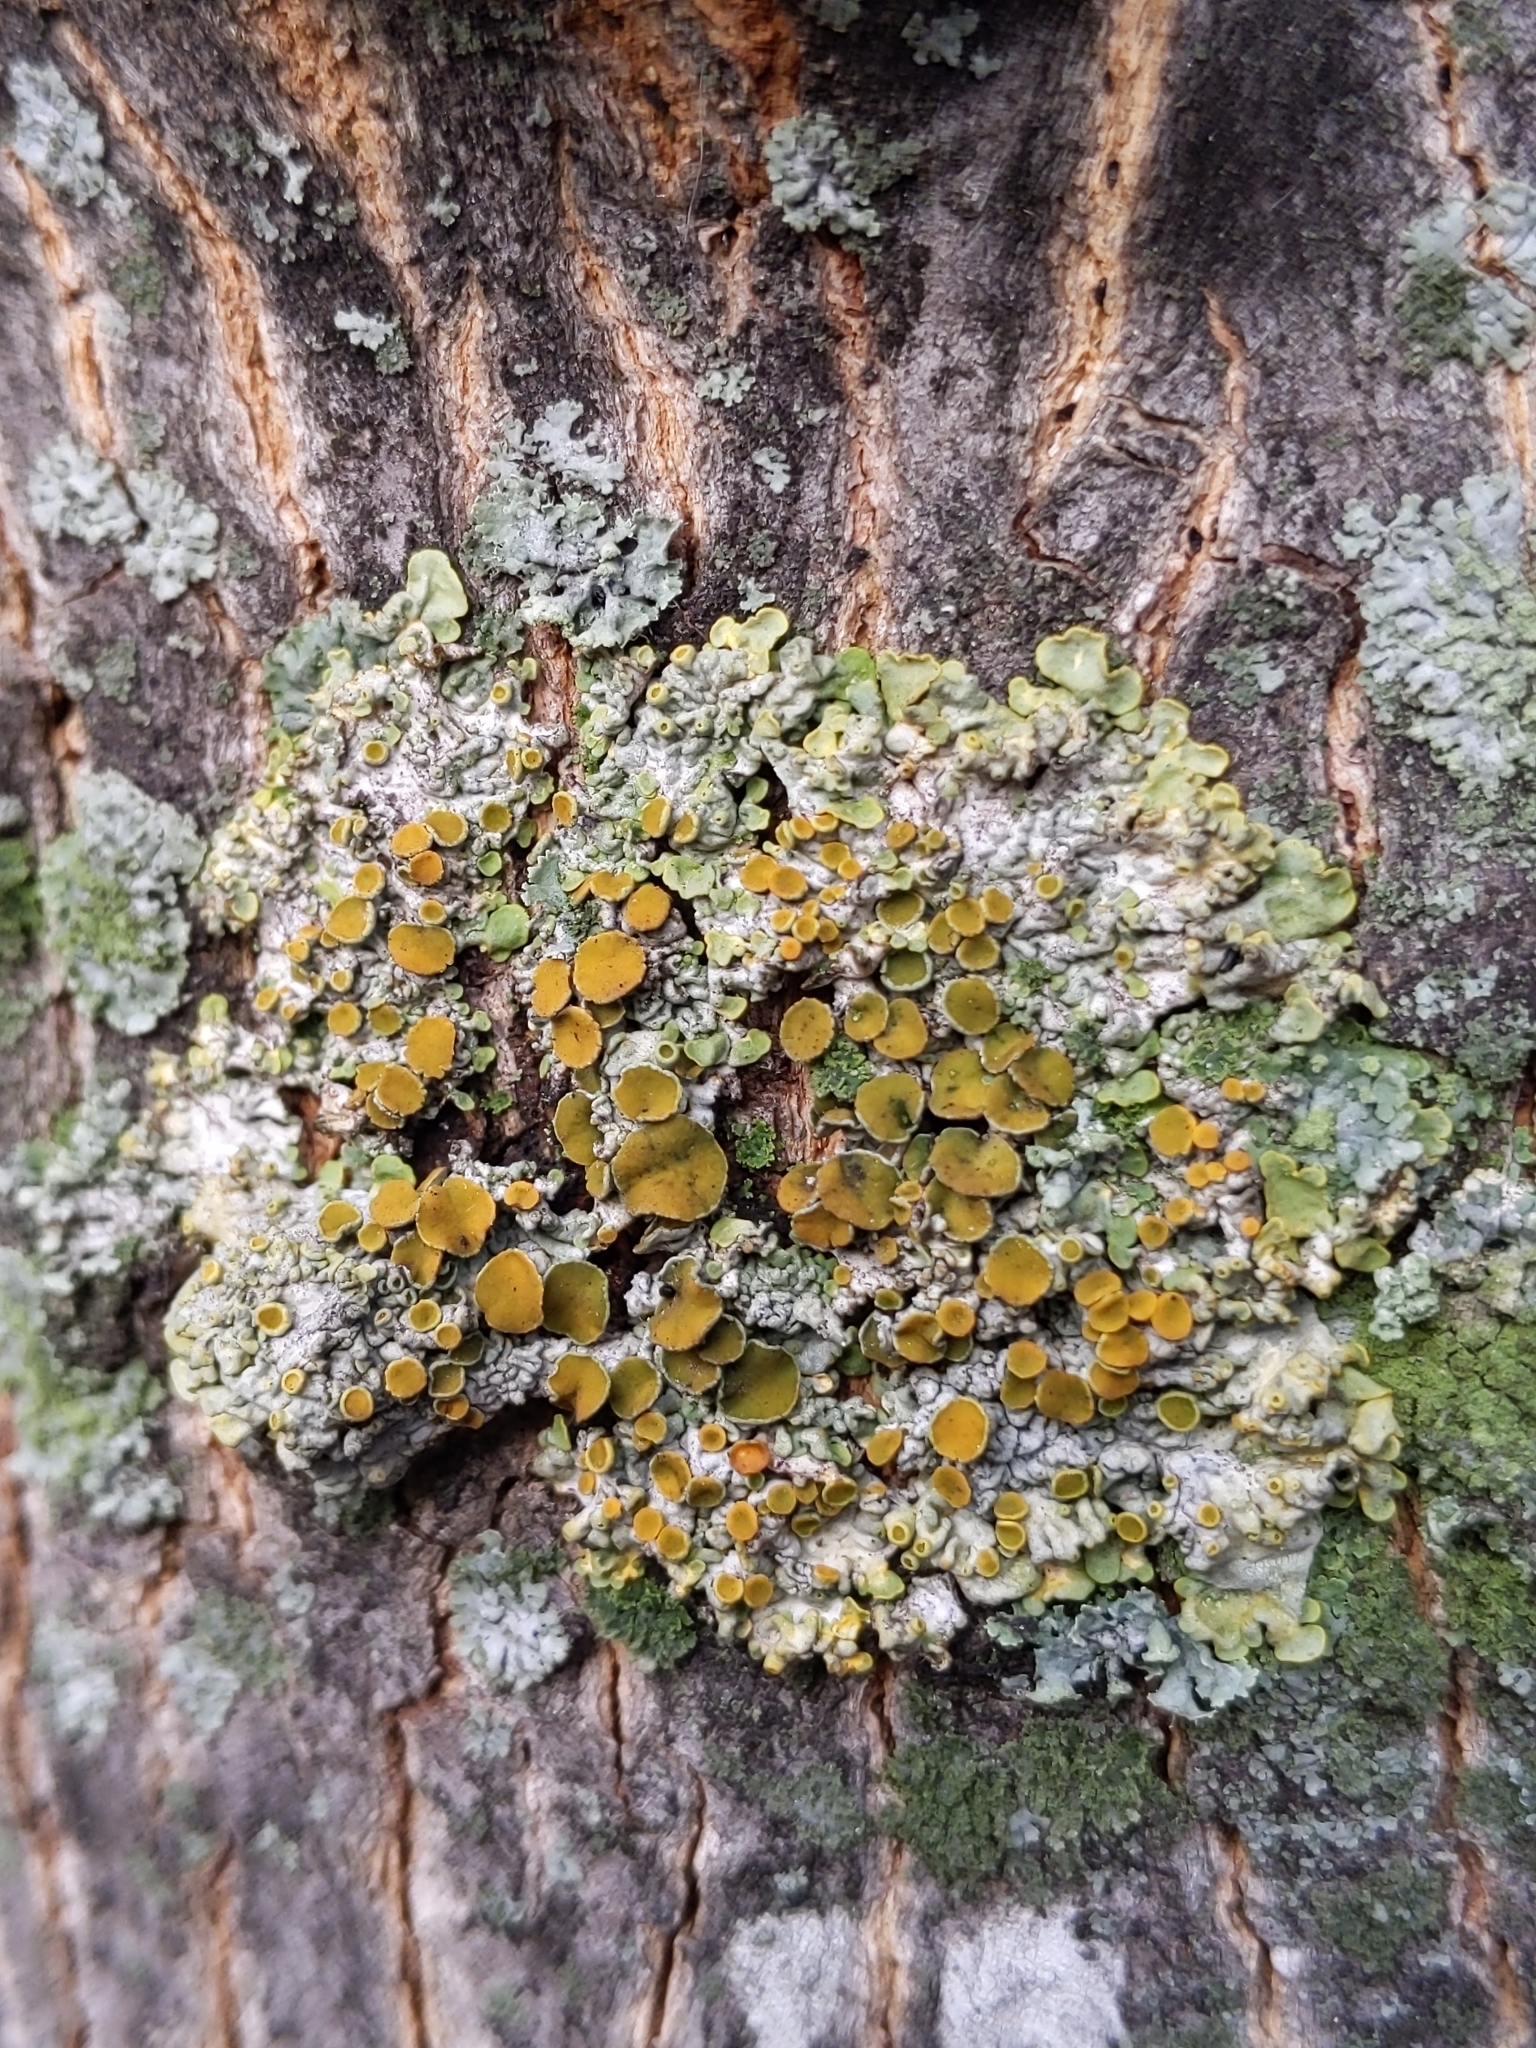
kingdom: Fungi
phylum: Ascomycota
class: Lecanoromycetes
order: Teloschistales
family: Teloschistaceae
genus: Xanthoria
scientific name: Xanthoria parietina
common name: Common orange lichen
